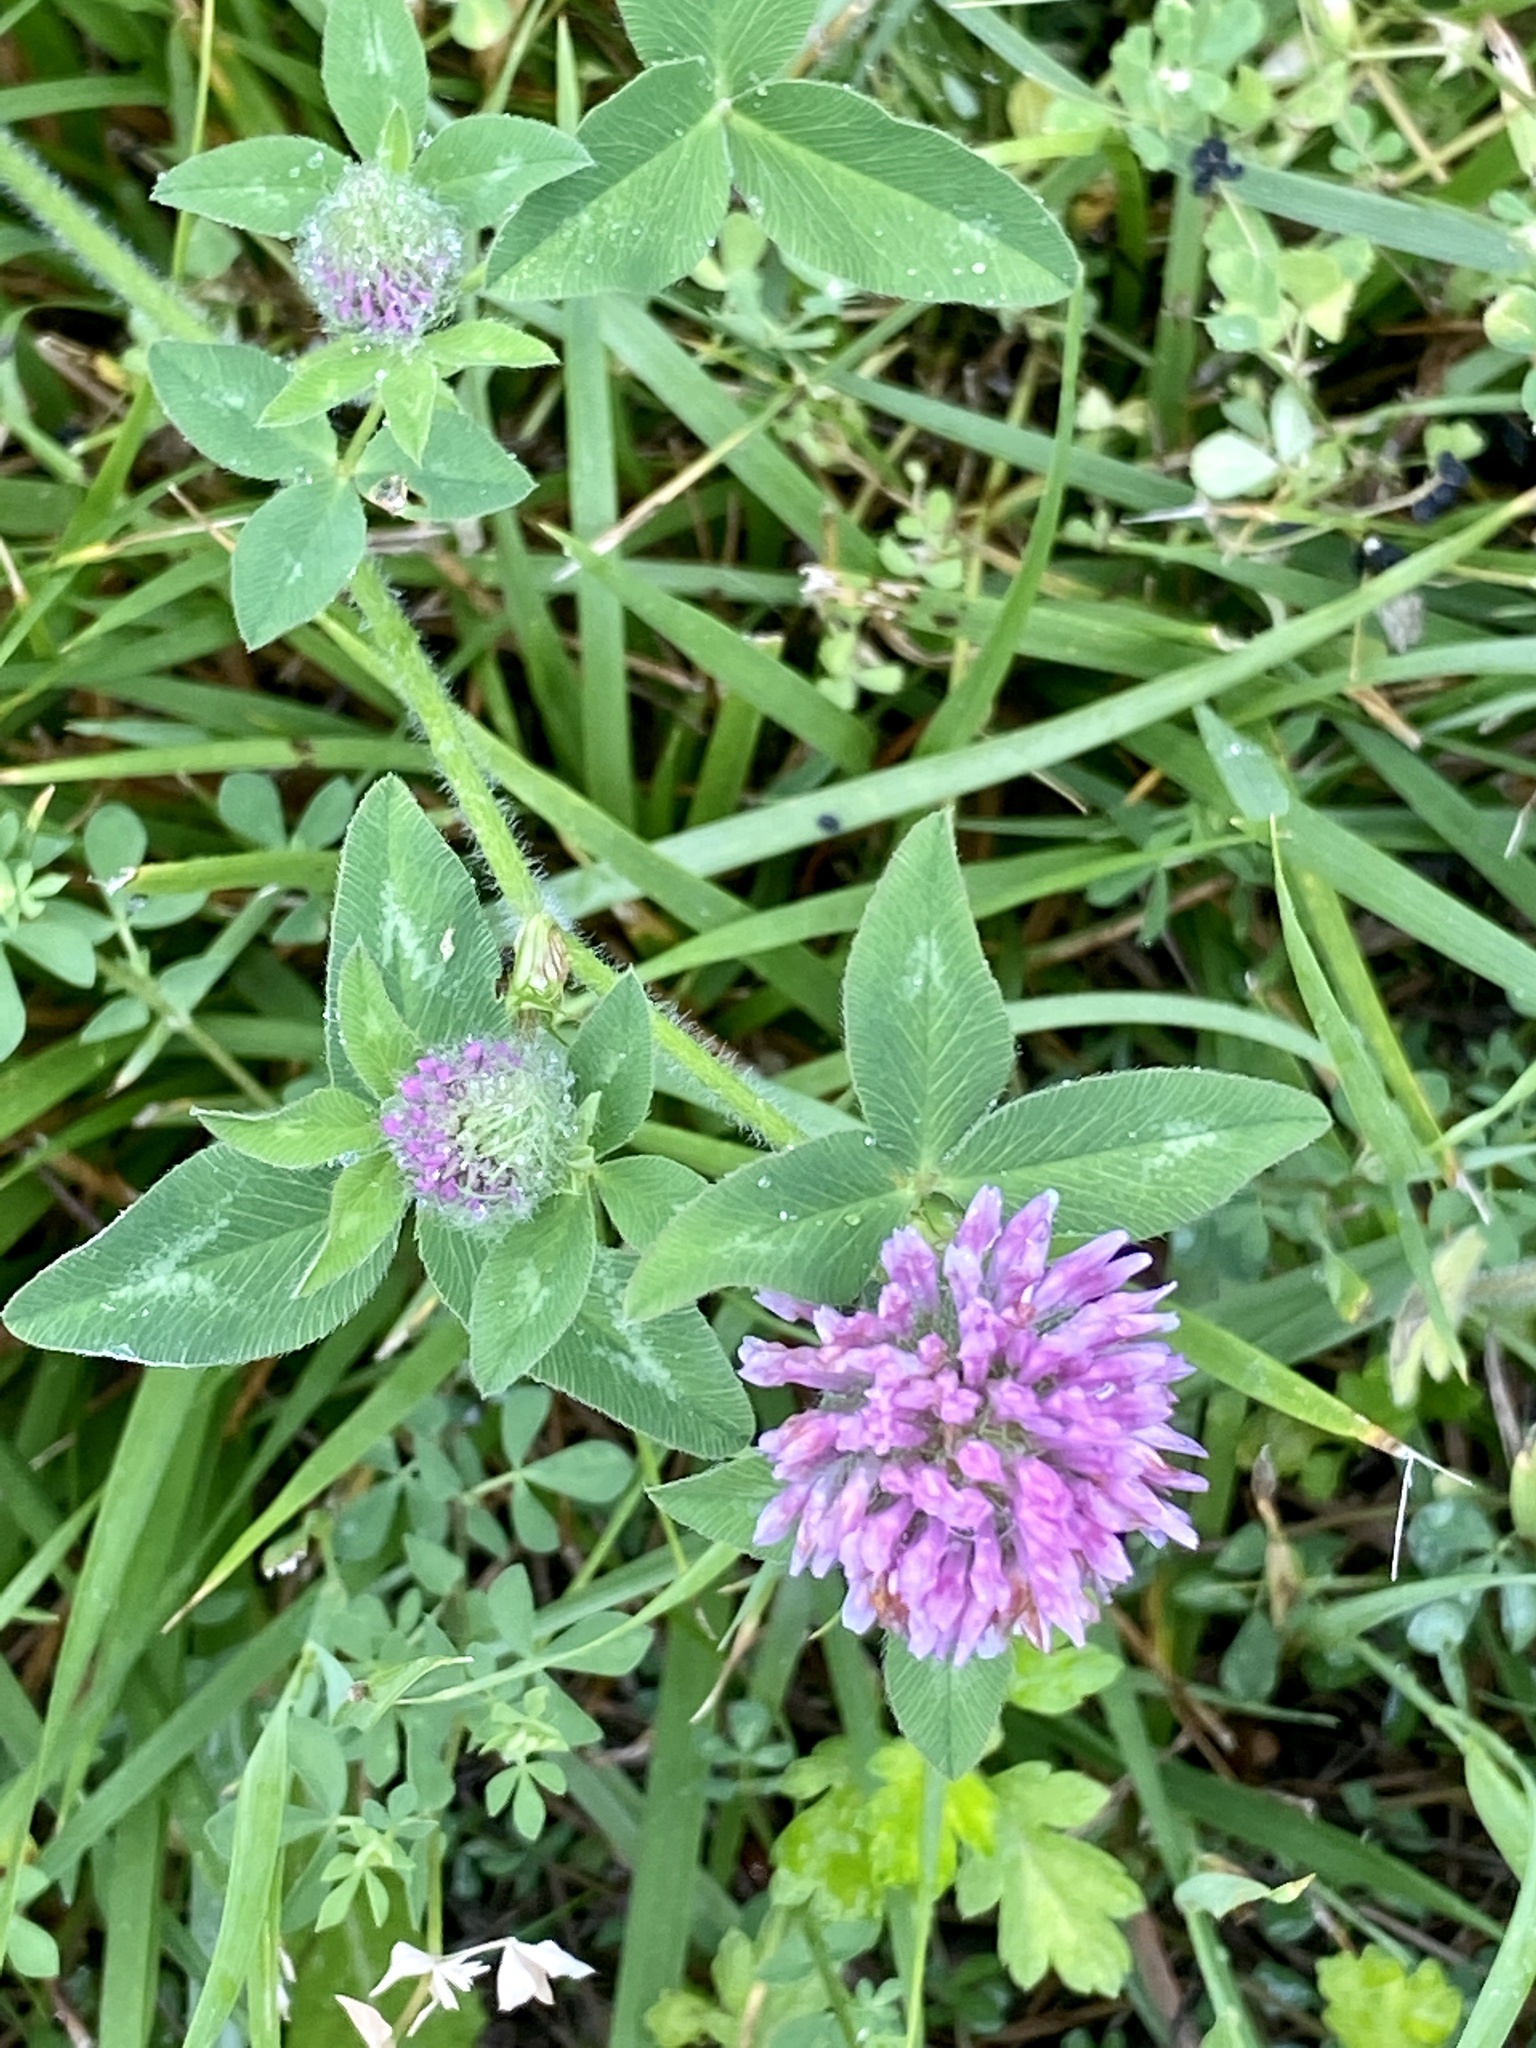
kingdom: Plantae
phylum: Tracheophyta
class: Magnoliopsida
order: Fabales
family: Fabaceae
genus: Trifolium
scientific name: Trifolium pratense
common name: Red clover
